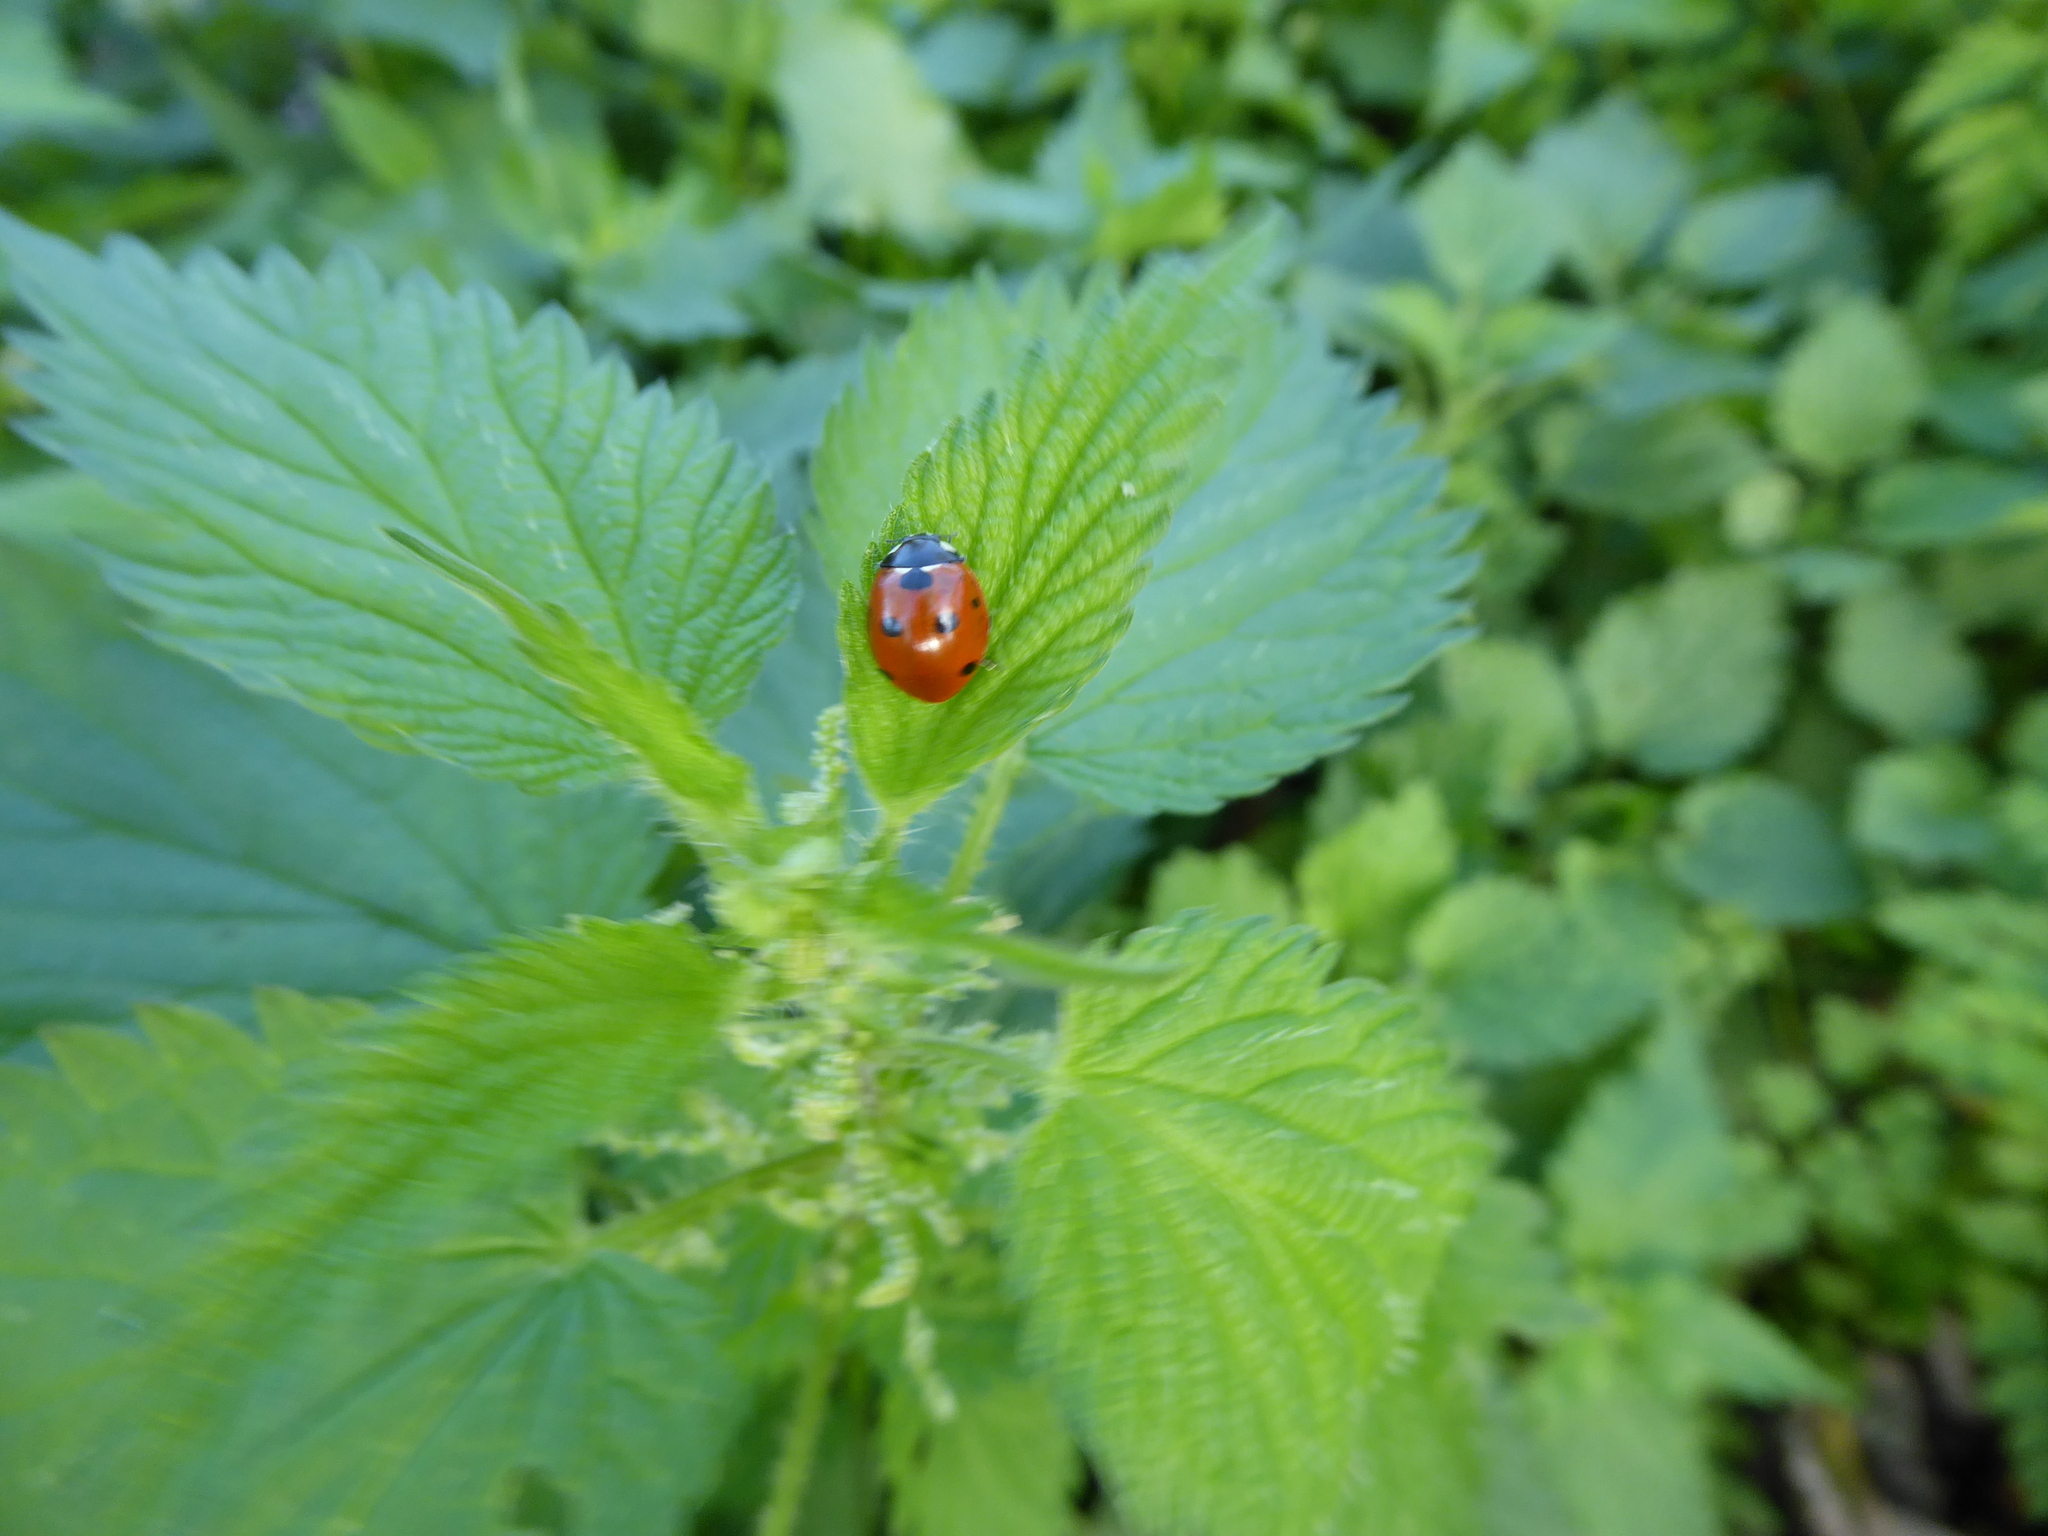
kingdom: Animalia
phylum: Arthropoda
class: Insecta
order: Coleoptera
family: Coccinellidae
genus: Coccinella
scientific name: Coccinella septempunctata
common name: Sevenspotted lady beetle
